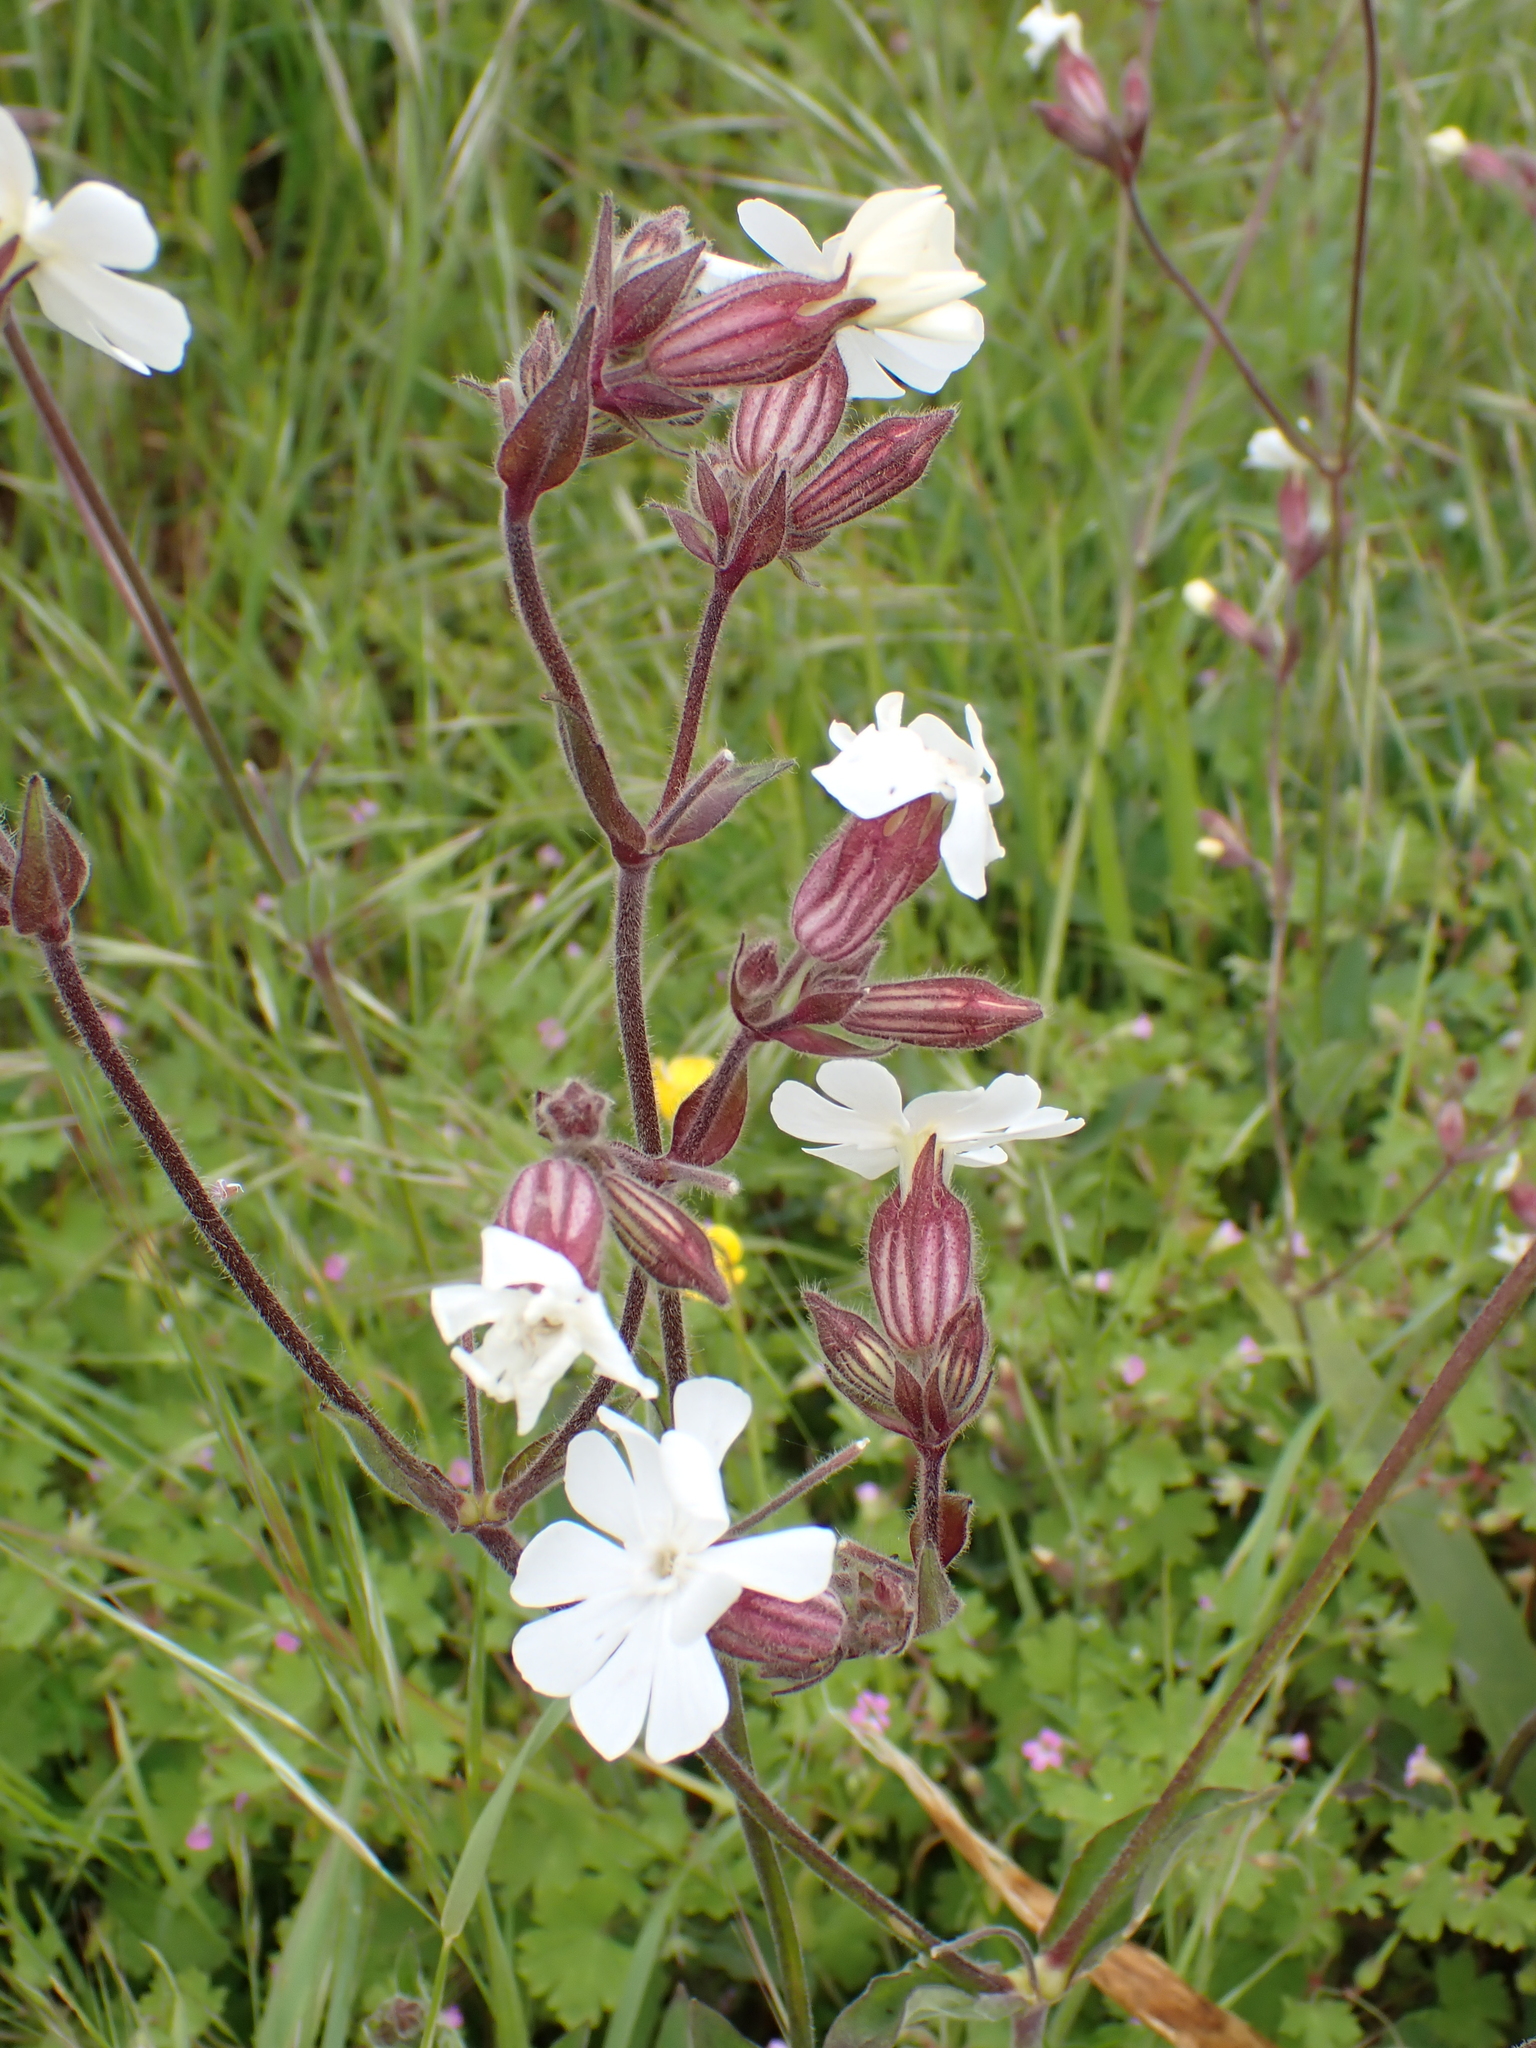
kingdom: Plantae
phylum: Tracheophyta
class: Magnoliopsida
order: Caryophyllales
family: Caryophyllaceae
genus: Silene
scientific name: Silene latifolia
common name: White campion
